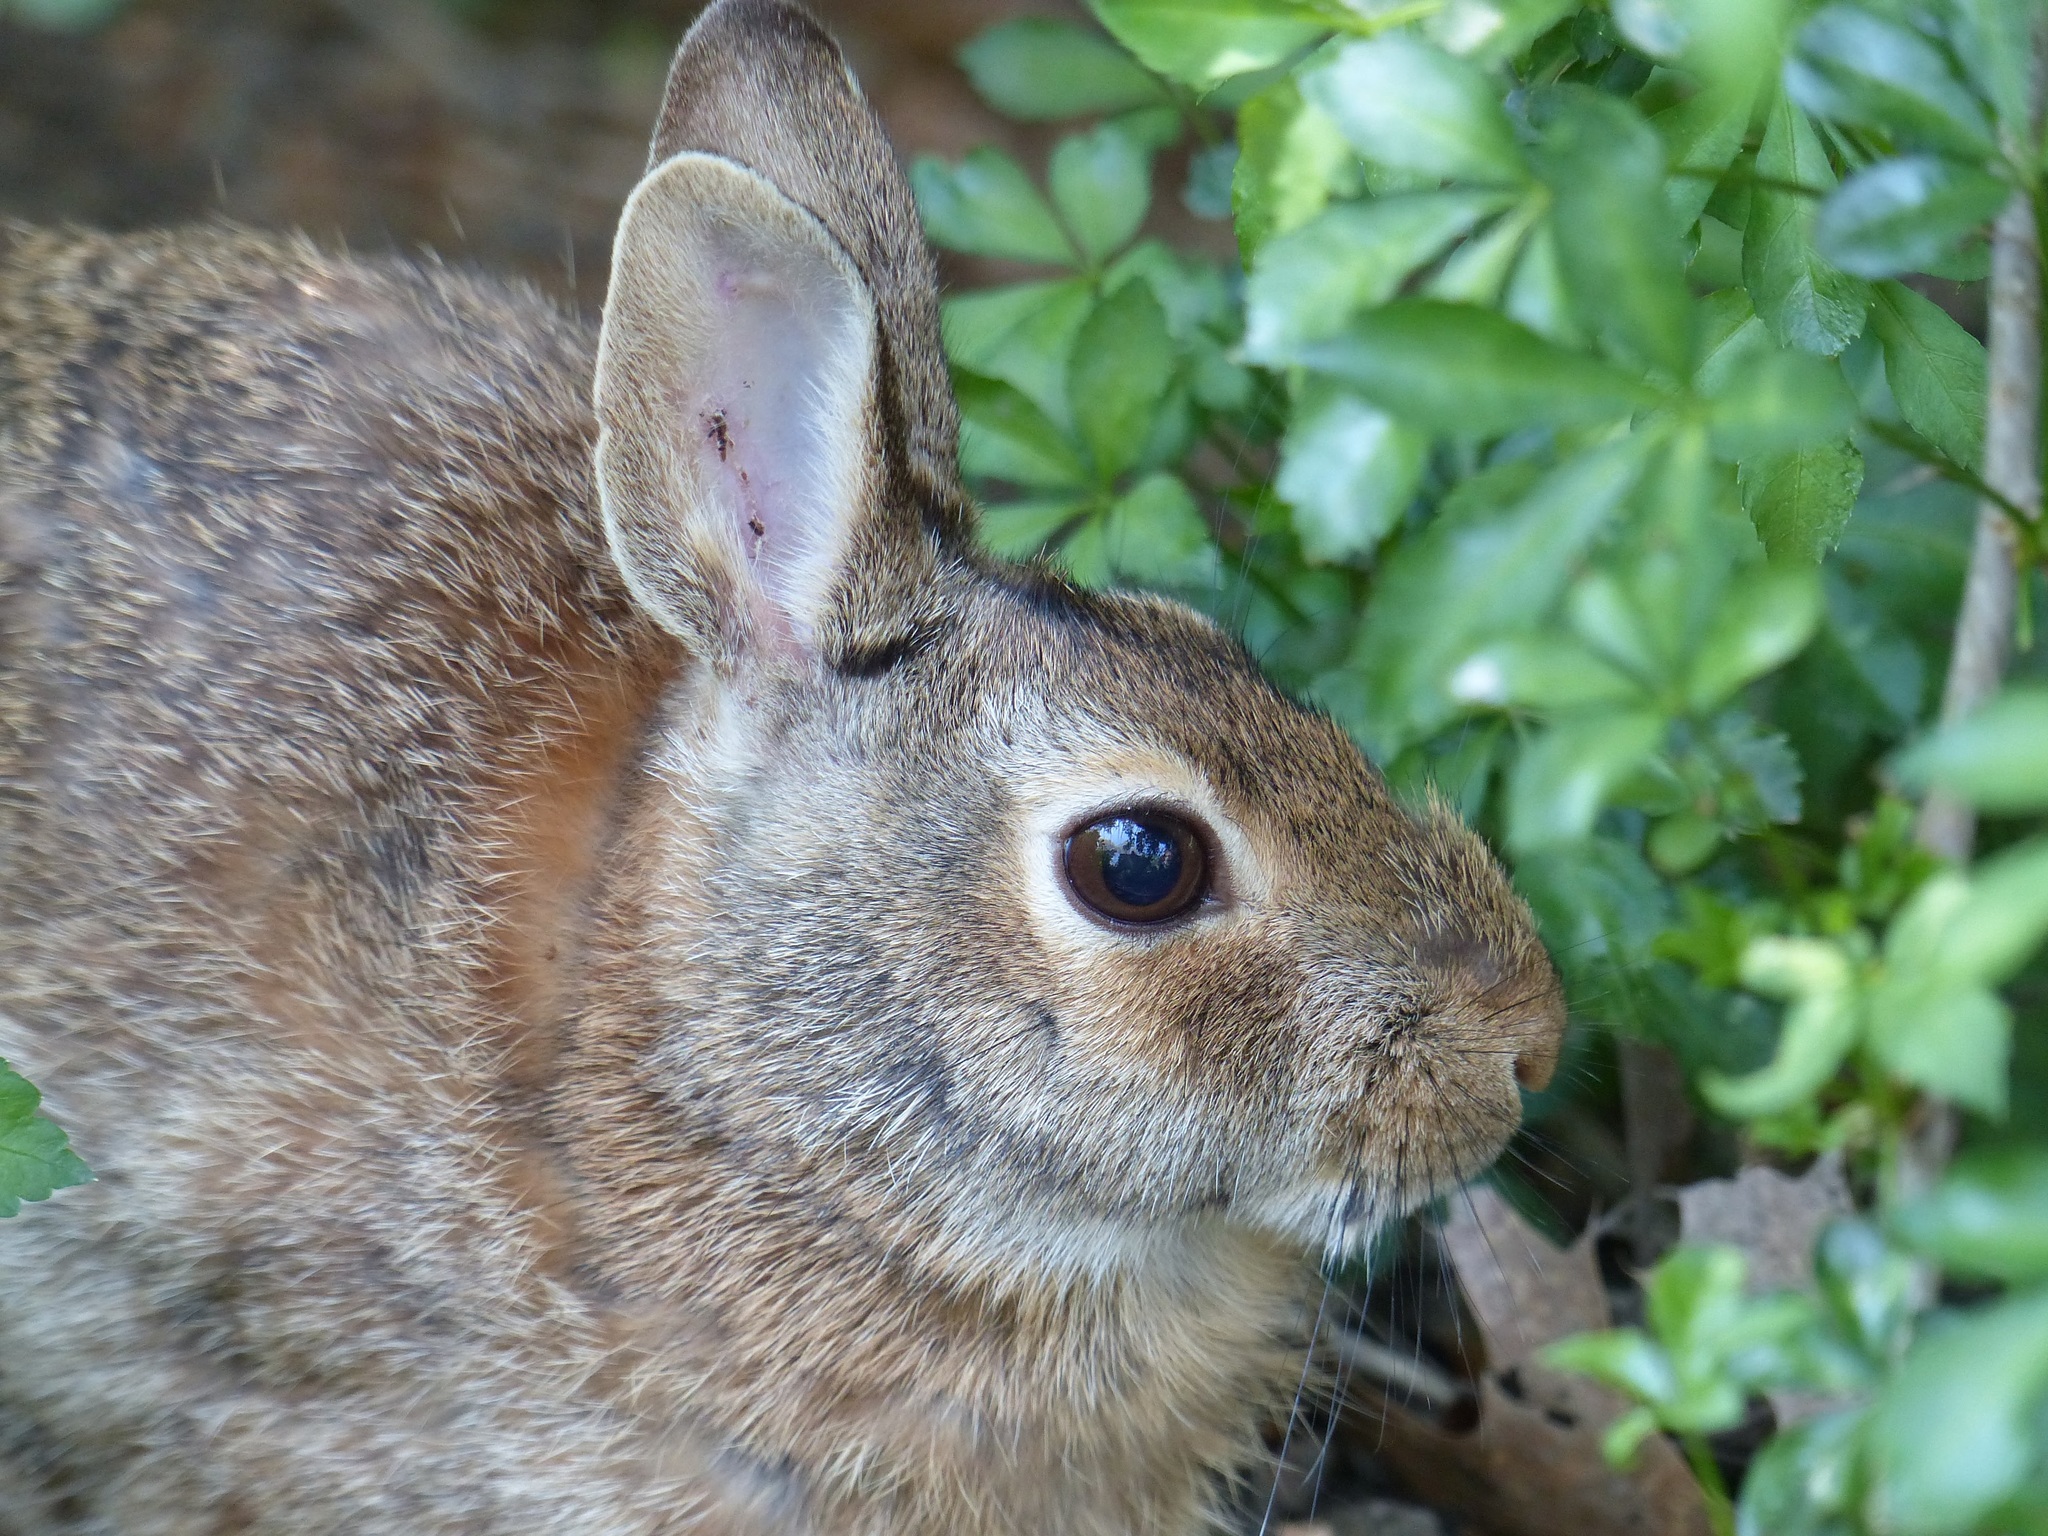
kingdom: Animalia
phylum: Chordata
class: Mammalia
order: Lagomorpha
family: Leporidae
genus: Sylvilagus
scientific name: Sylvilagus floridanus
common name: Eastern cottontail
